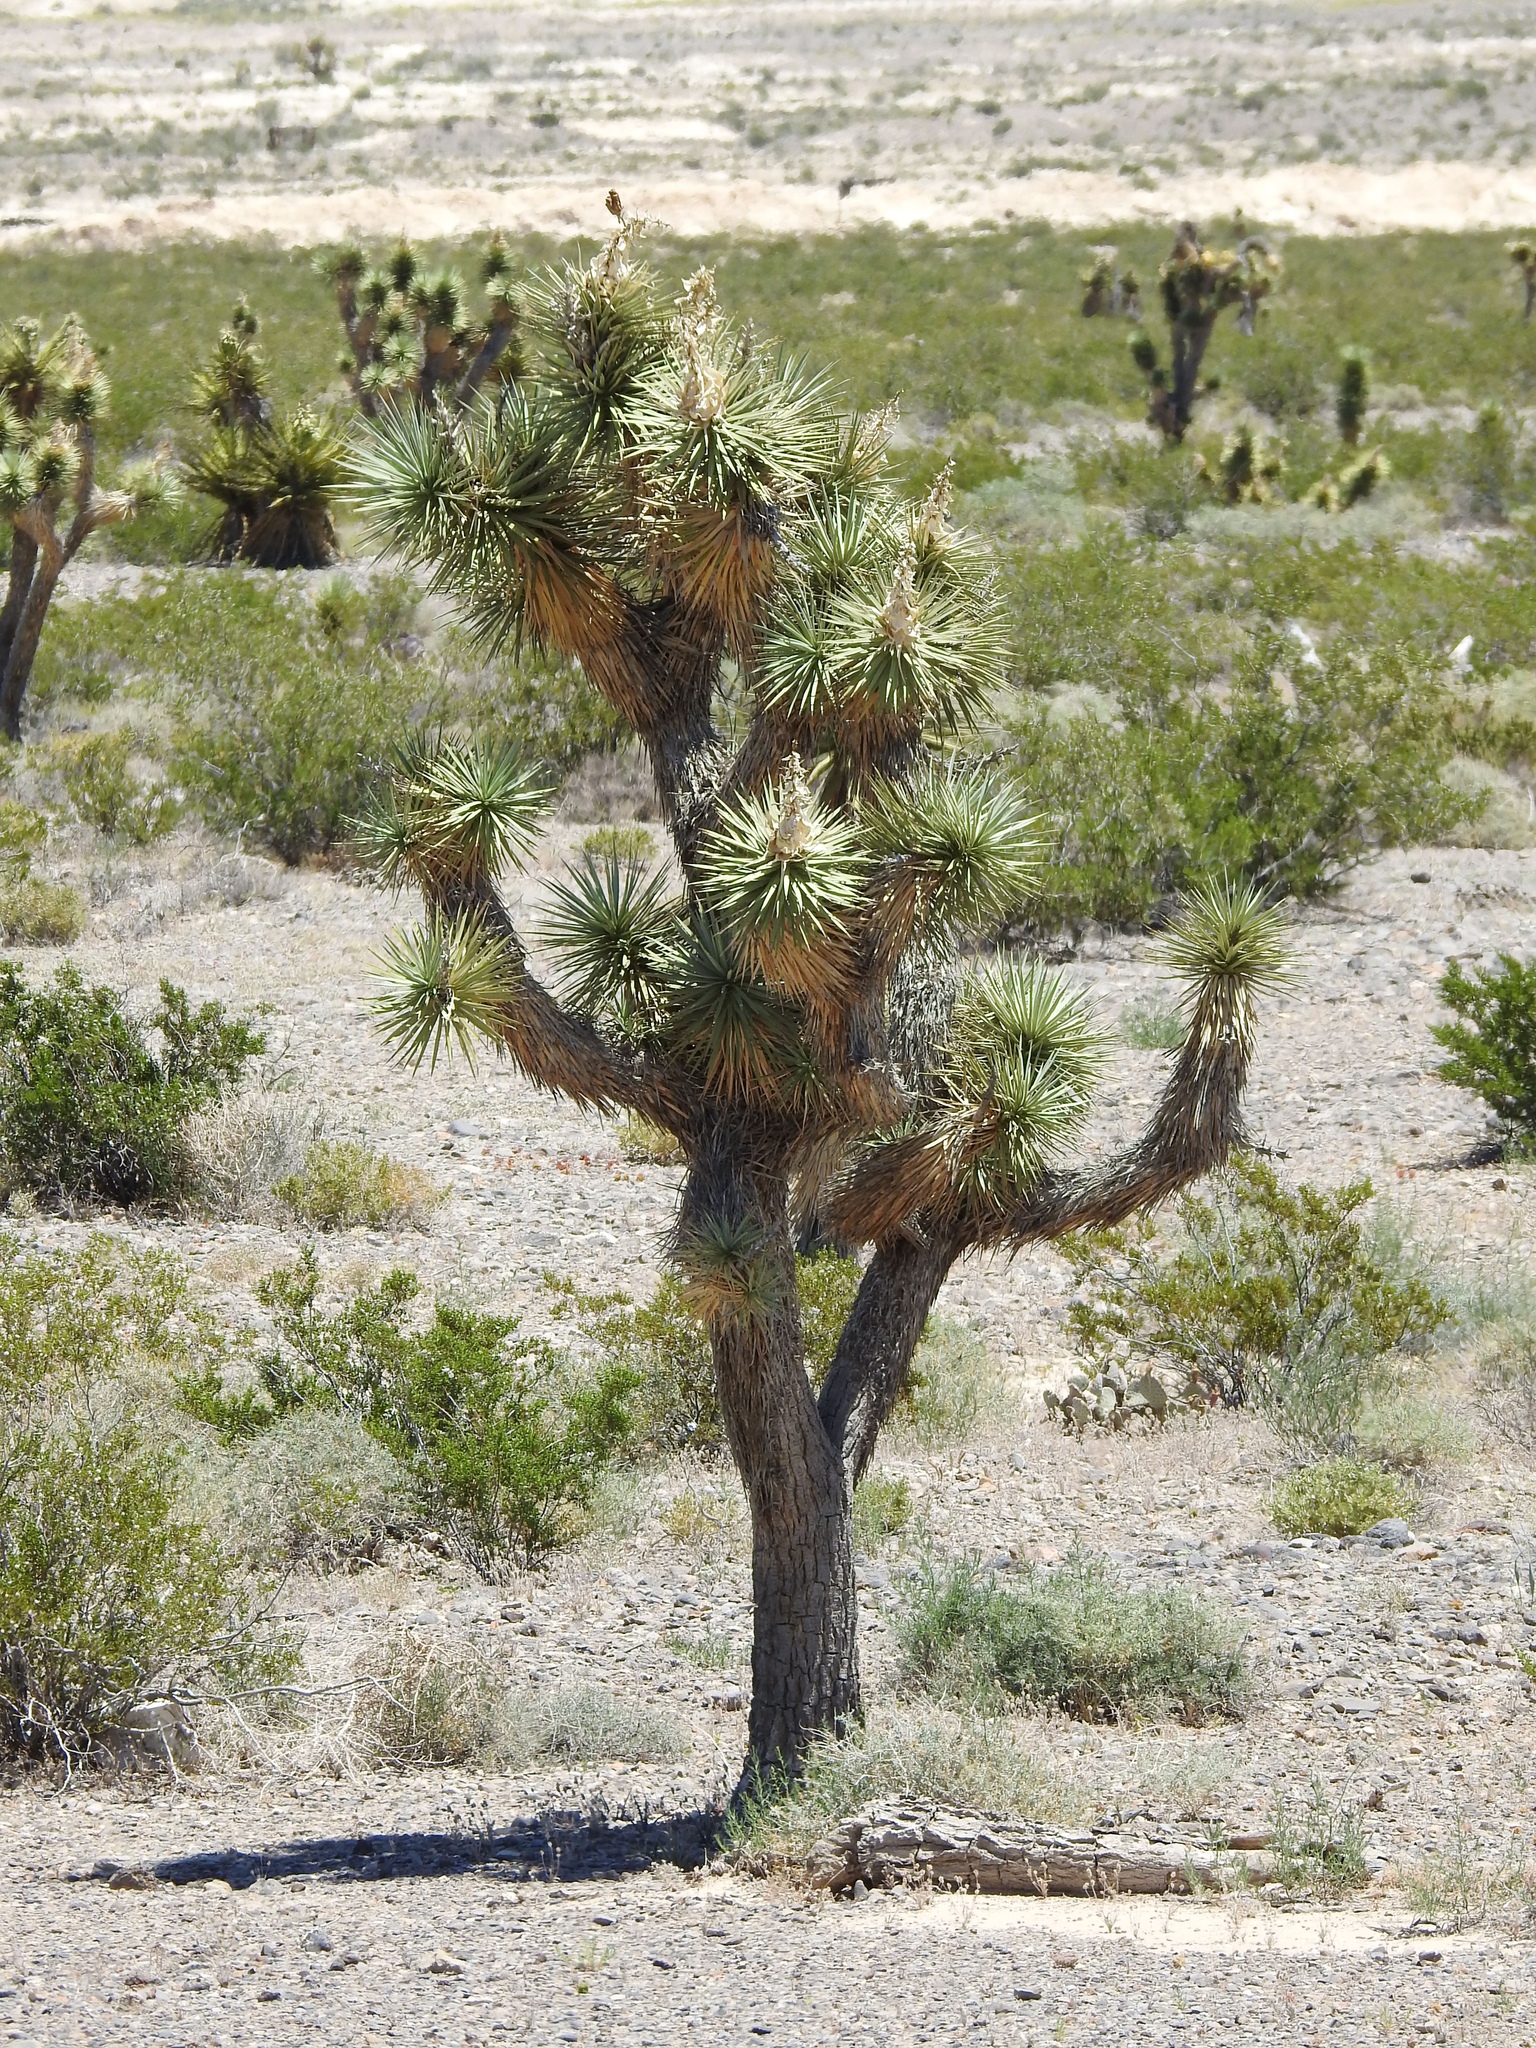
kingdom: Plantae
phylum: Tracheophyta
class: Liliopsida
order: Asparagales
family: Asparagaceae
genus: Yucca
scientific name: Yucca brevifolia
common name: Joshua tree
